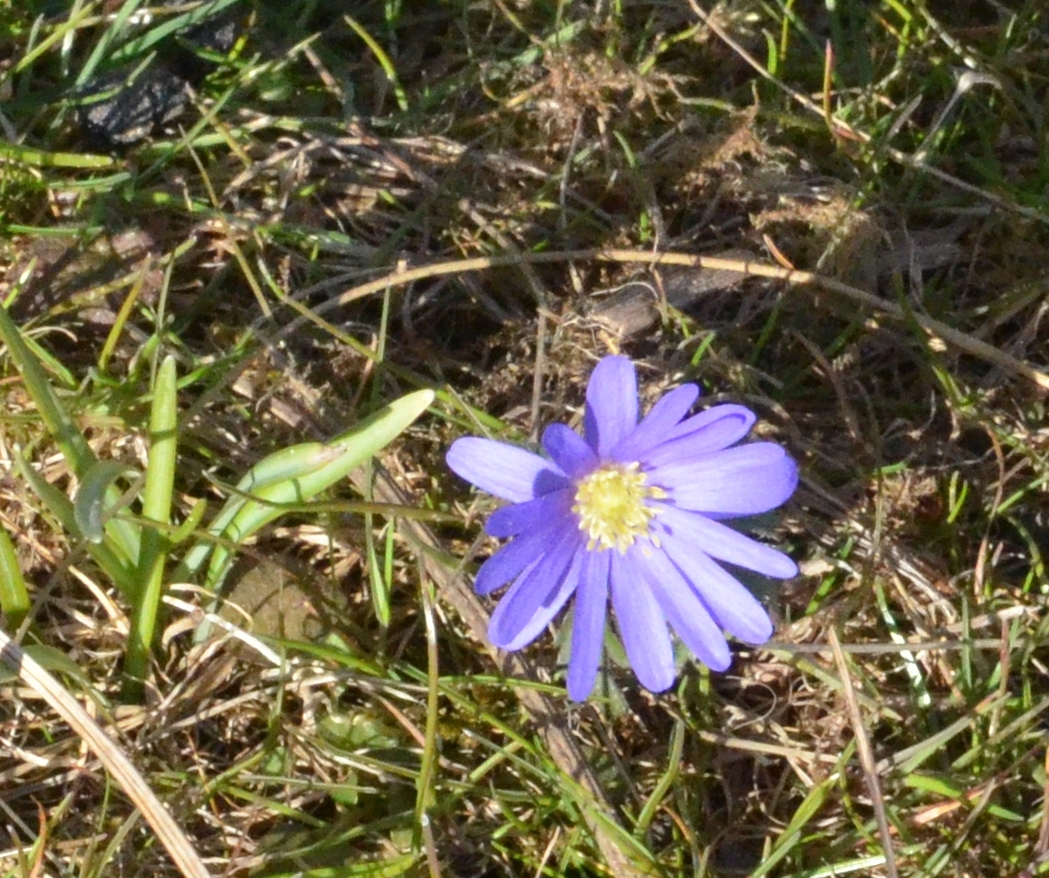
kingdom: Plantae
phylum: Tracheophyta
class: Magnoliopsida
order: Ranunculales
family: Ranunculaceae
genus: Anemone
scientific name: Anemone blanda
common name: Balkan anemone
